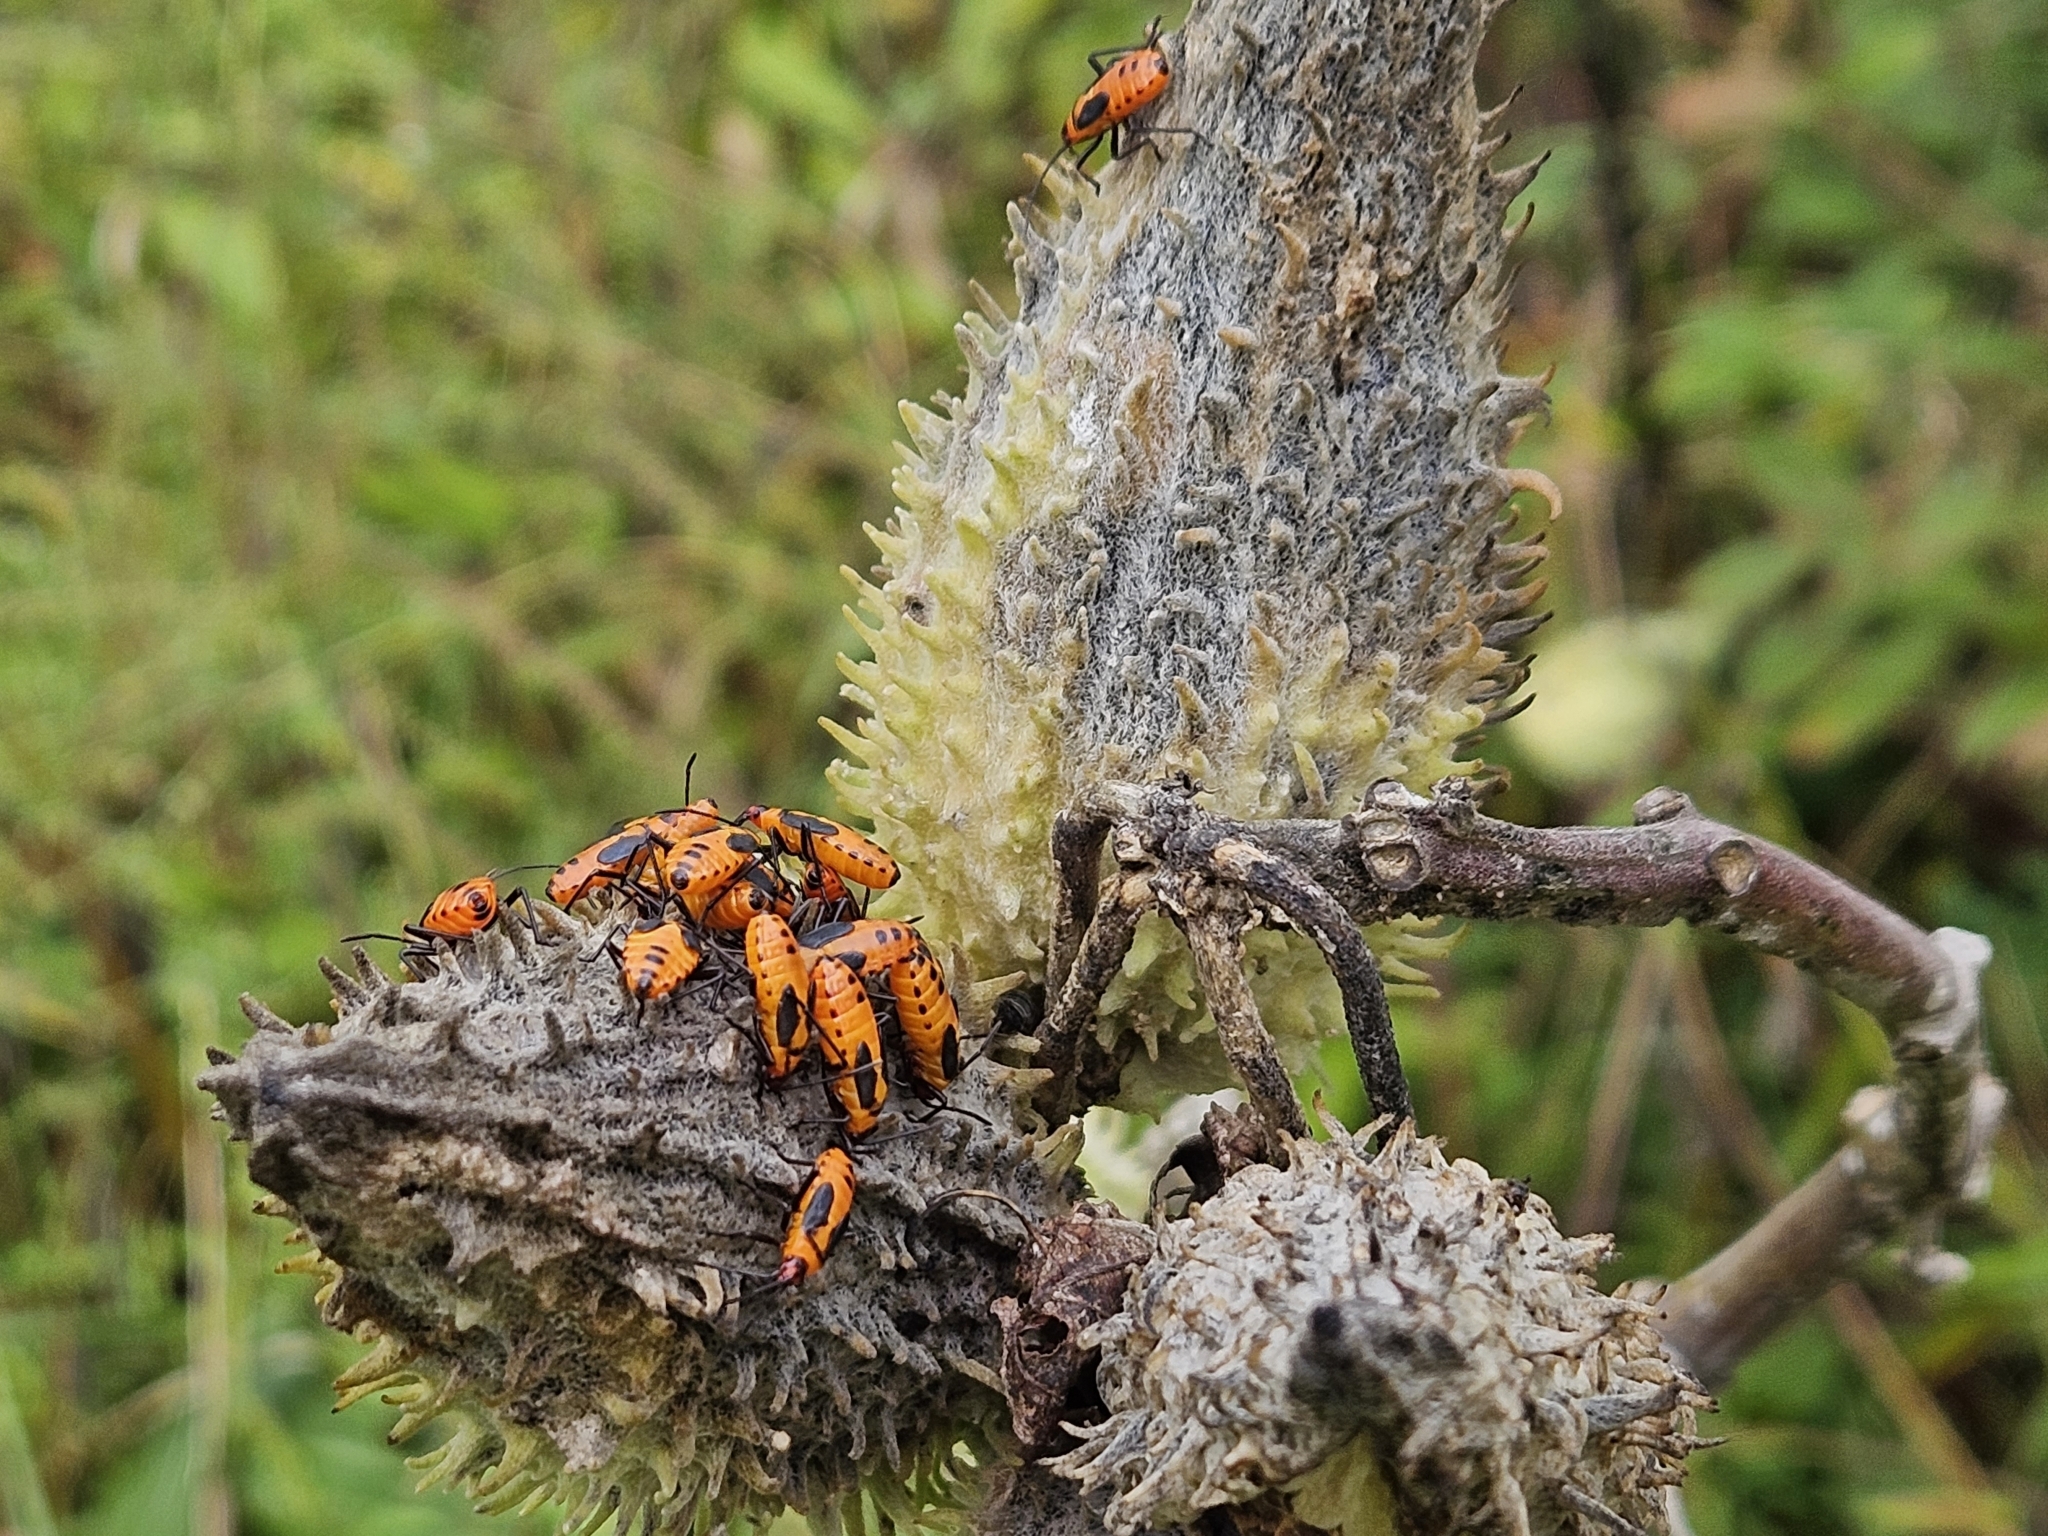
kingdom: Animalia
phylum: Arthropoda
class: Insecta
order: Hemiptera
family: Lygaeidae
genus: Oncopeltus
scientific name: Oncopeltus fasciatus
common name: Large milkweed bug
